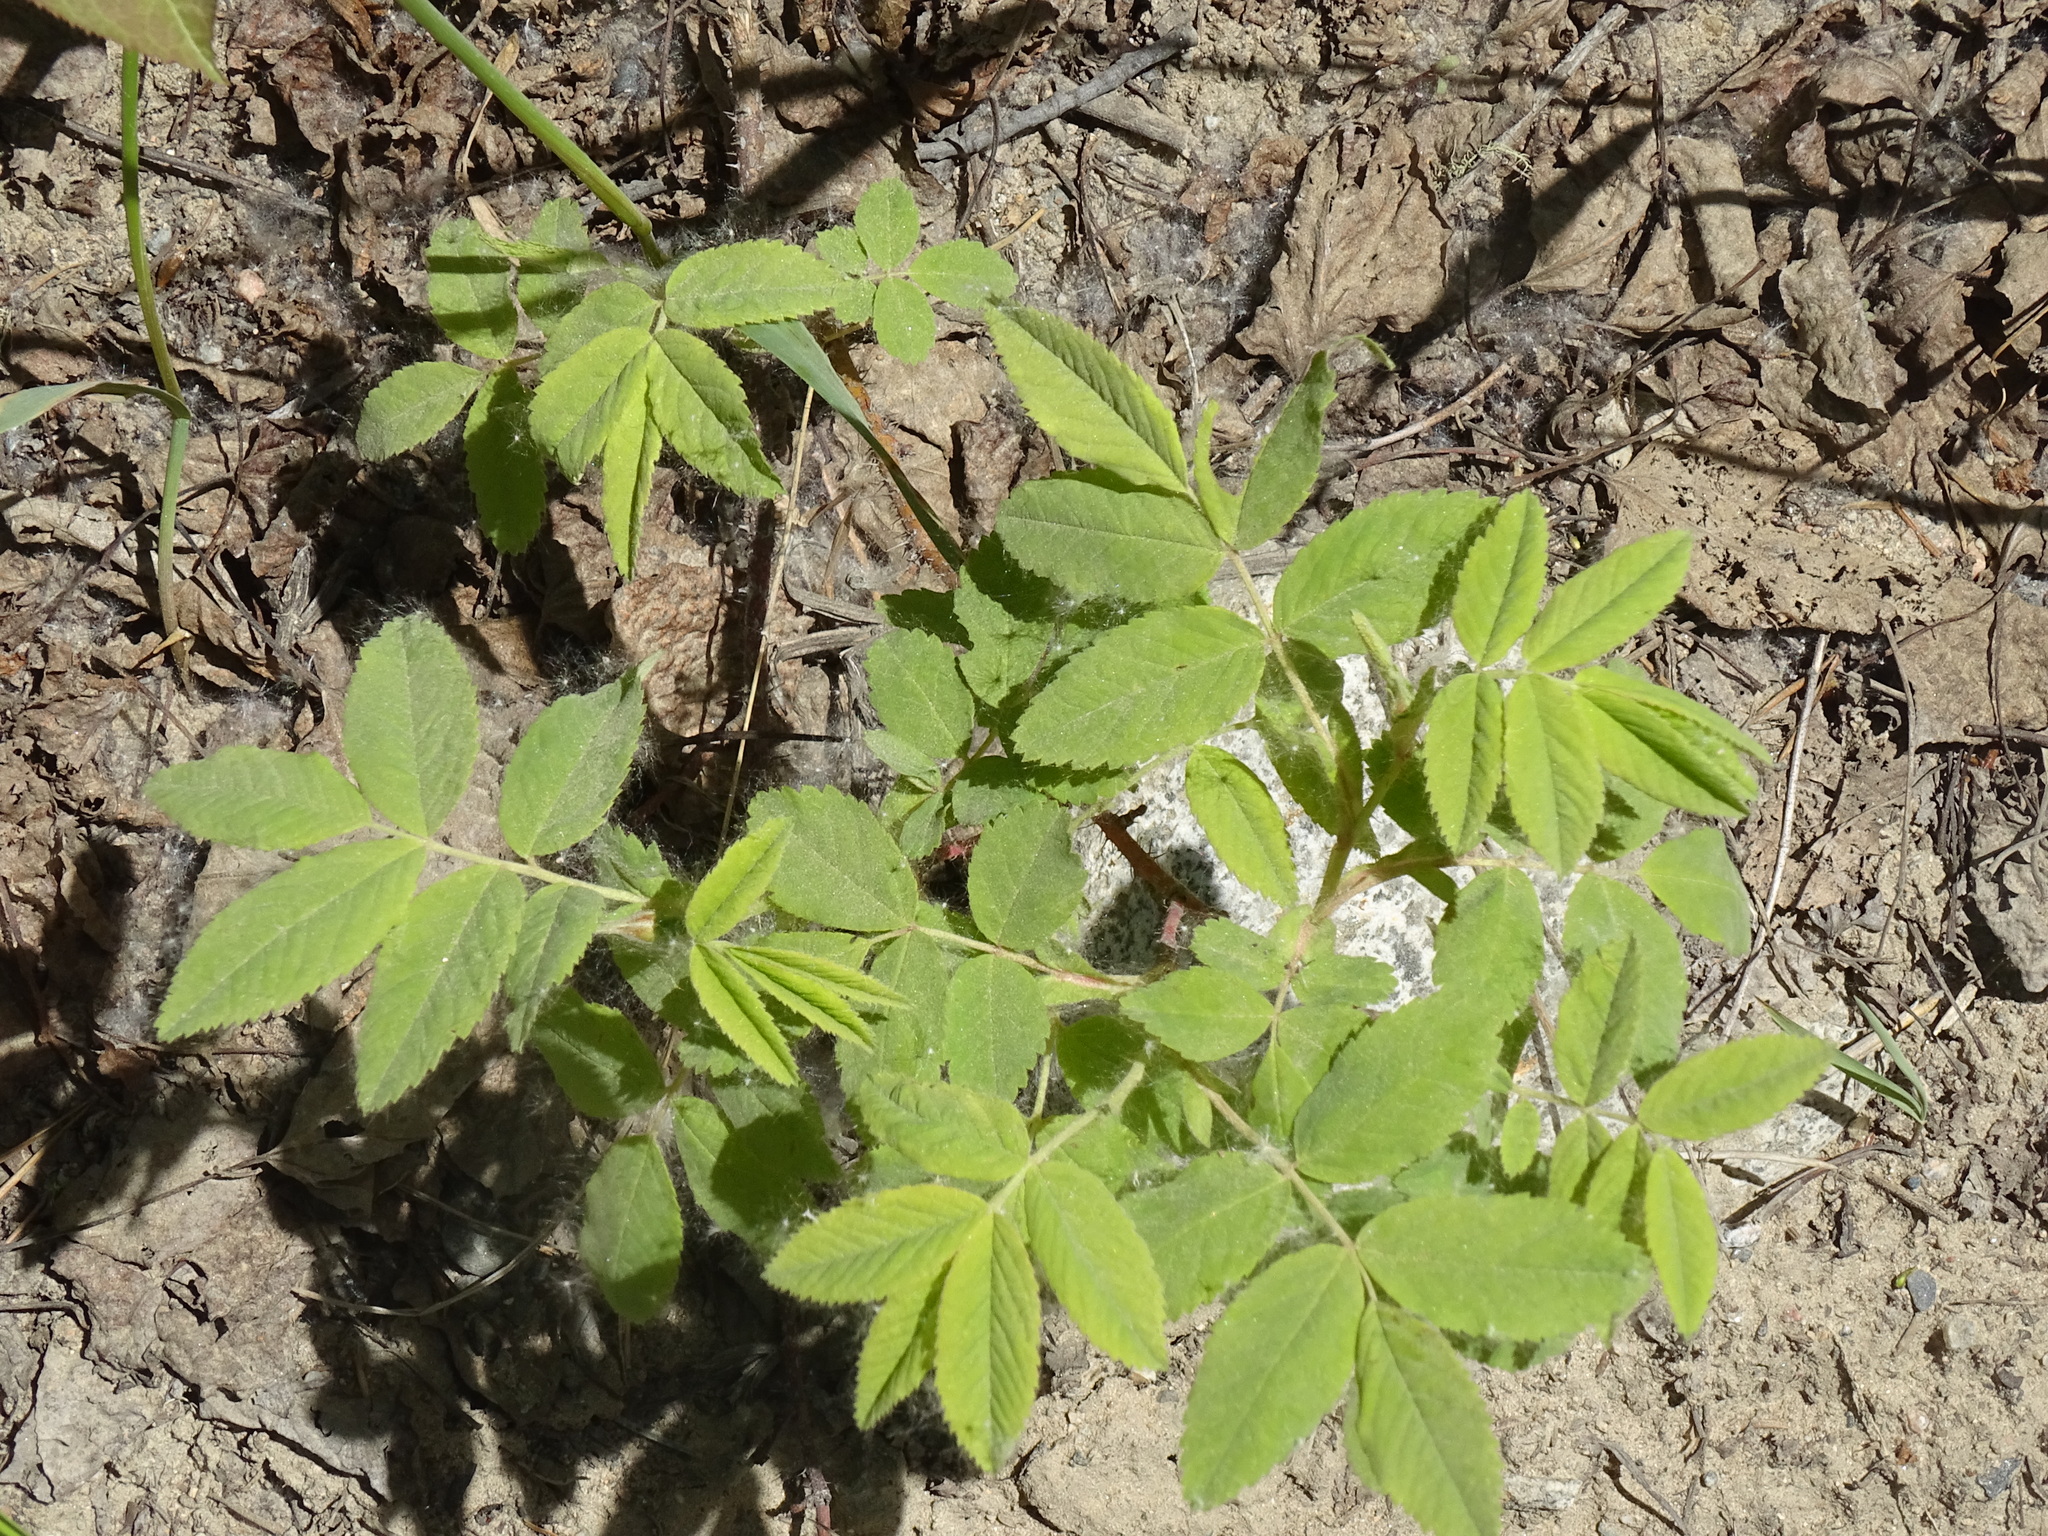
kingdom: Plantae
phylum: Tracheophyta
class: Magnoliopsida
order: Rosales
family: Rosaceae
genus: Rosa
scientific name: Rosa acicularis
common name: Prickly rose
